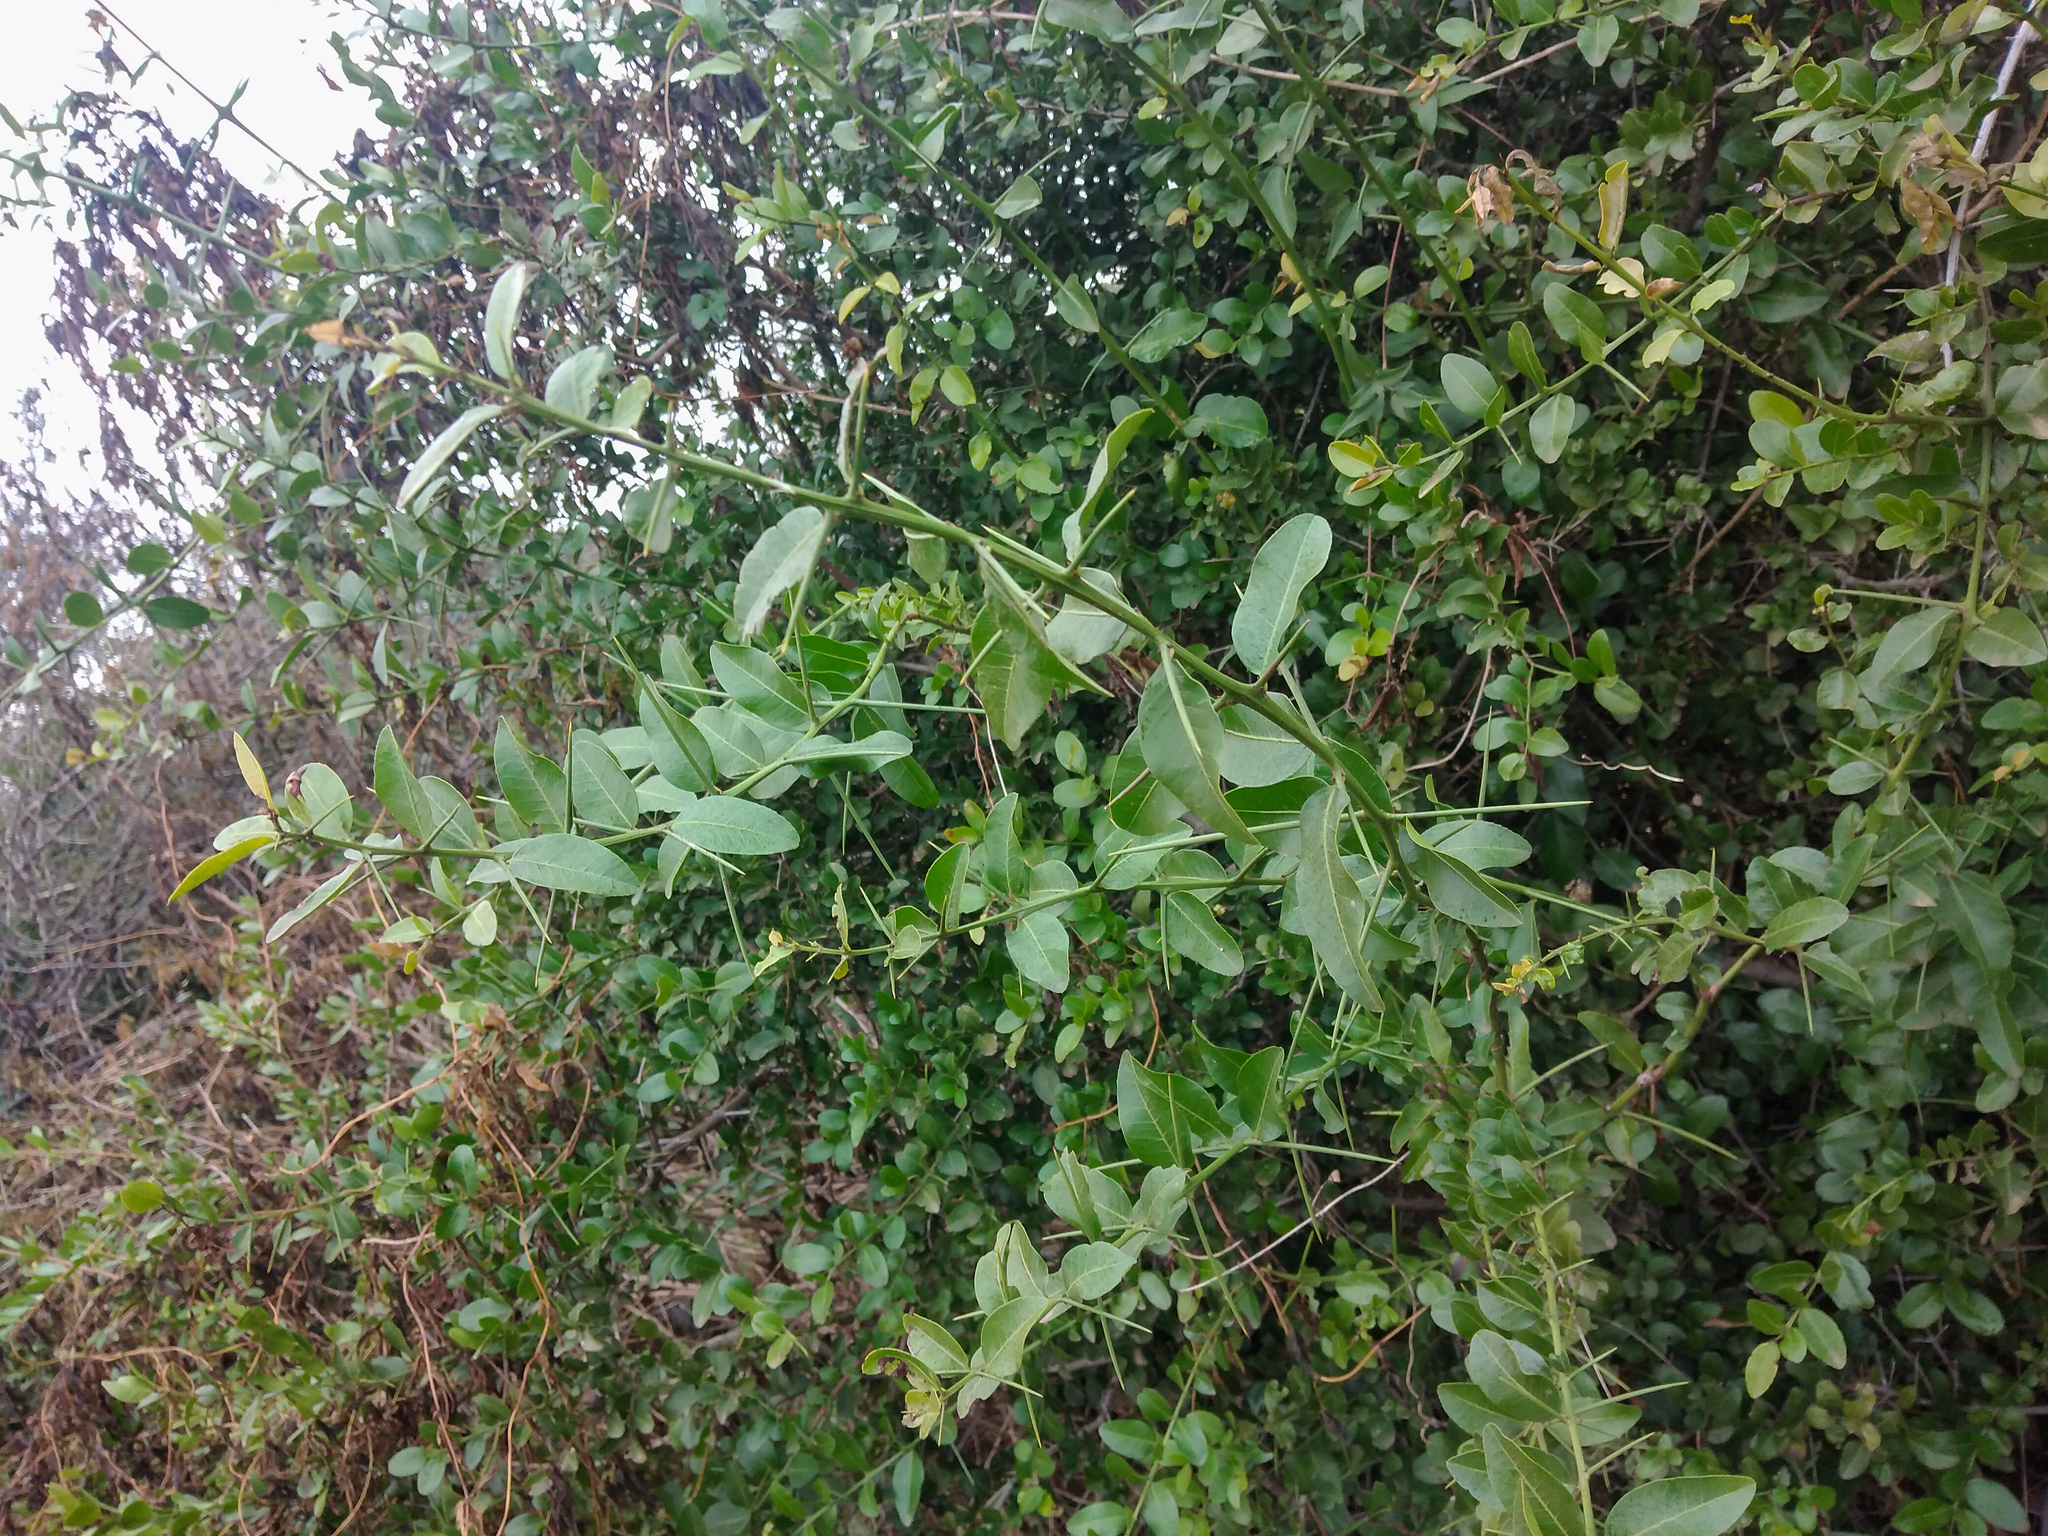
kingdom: Plantae
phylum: Tracheophyta
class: Magnoliopsida
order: Rosales
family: Rhamnaceae
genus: Scutia
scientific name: Scutia buxifolia
